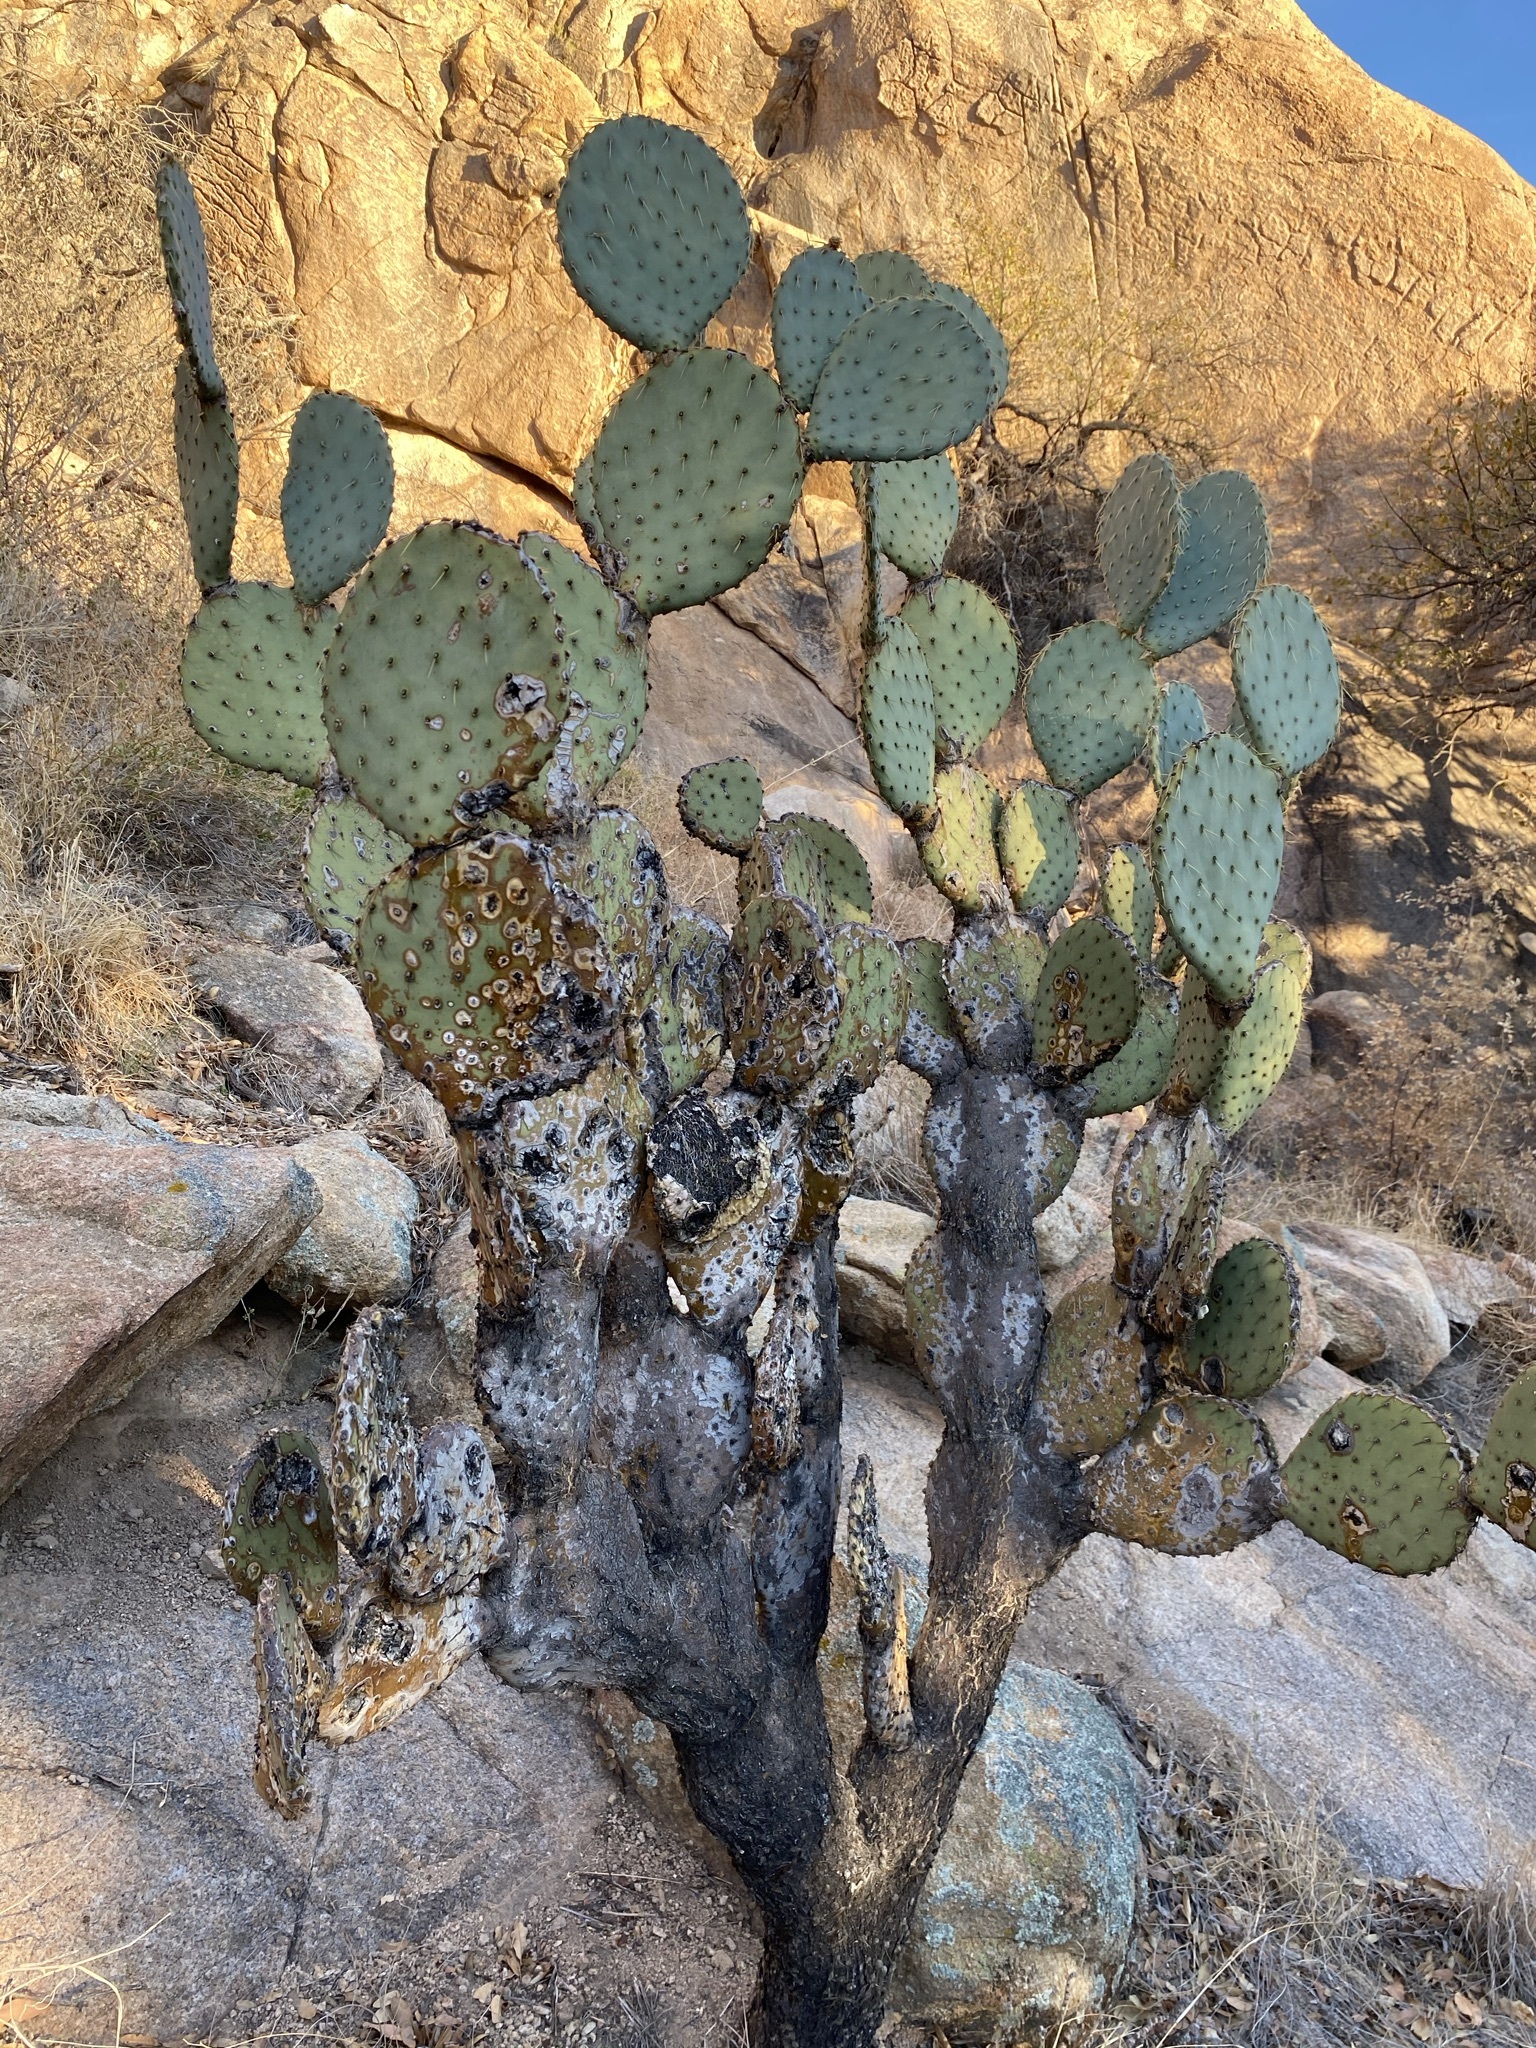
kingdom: Plantae
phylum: Tracheophyta
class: Magnoliopsida
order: Caryophyllales
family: Cactaceae
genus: Opuntia
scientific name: Opuntia chlorotica
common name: Dollar-joint prickly-pear
